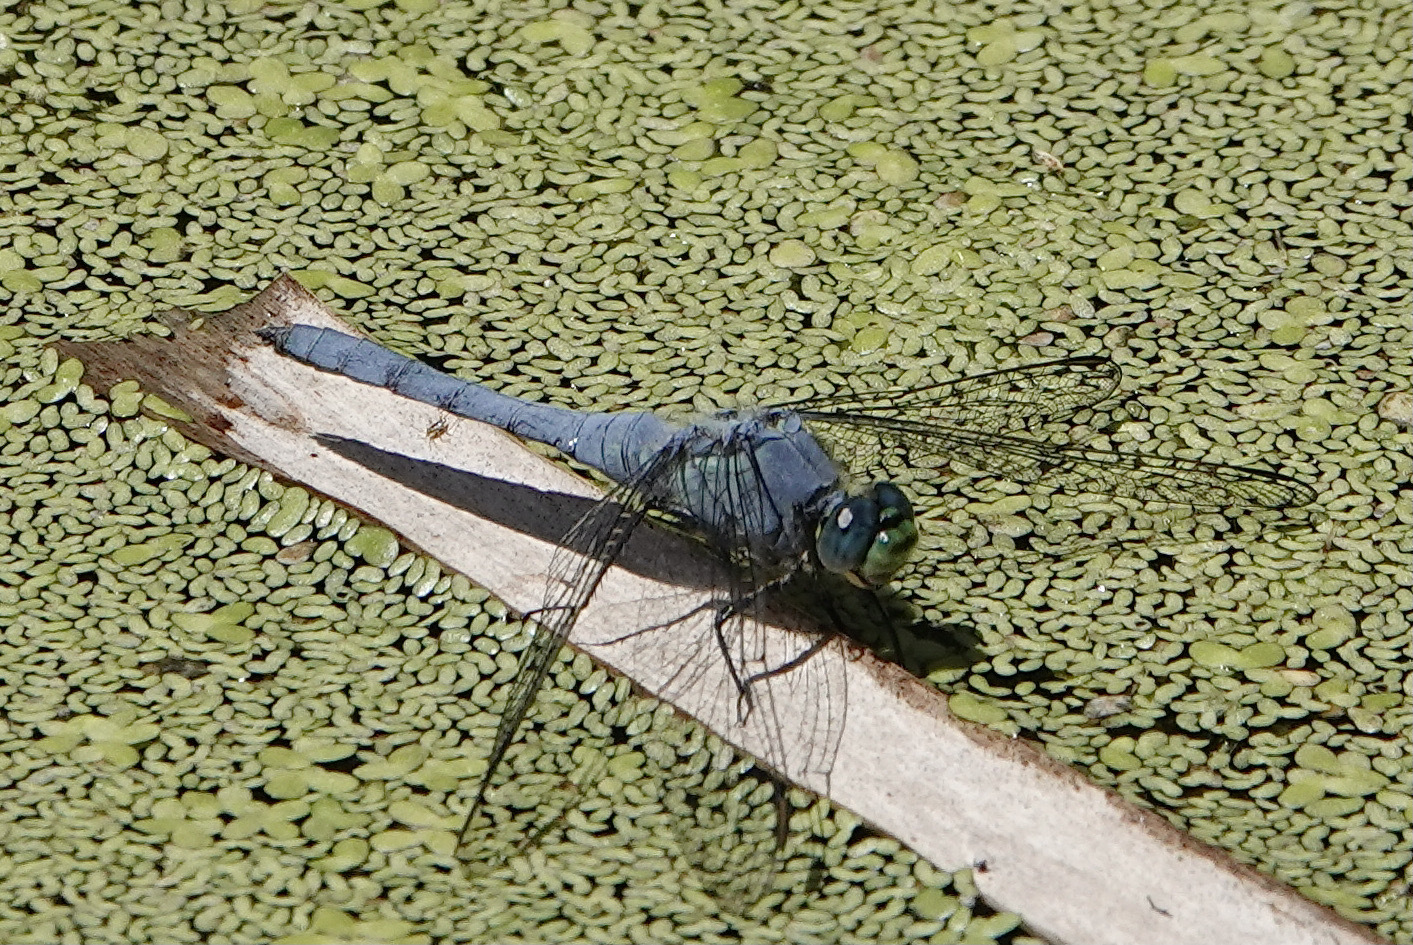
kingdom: Animalia
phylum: Arthropoda
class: Insecta
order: Odonata
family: Libellulidae
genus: Erythemis
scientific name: Erythemis collocata
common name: Western pondhawk
